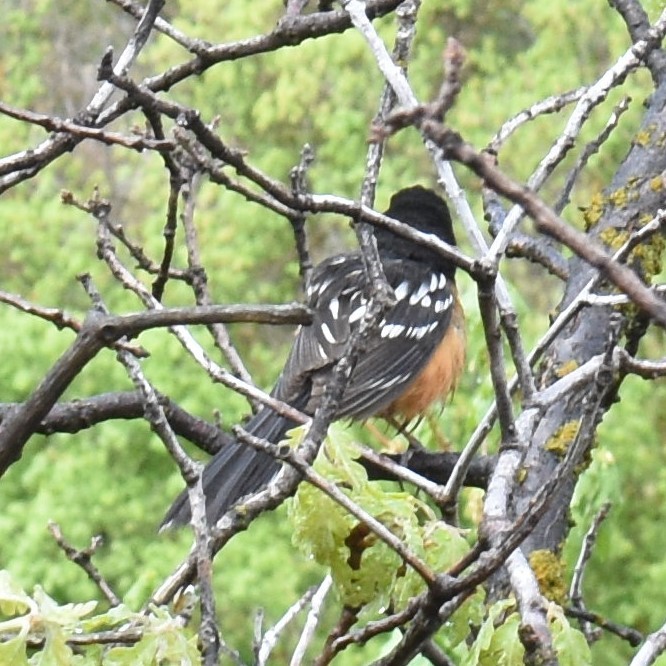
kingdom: Animalia
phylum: Chordata
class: Aves
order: Passeriformes
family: Passerellidae
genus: Pipilo
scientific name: Pipilo maculatus
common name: Spotted towhee
